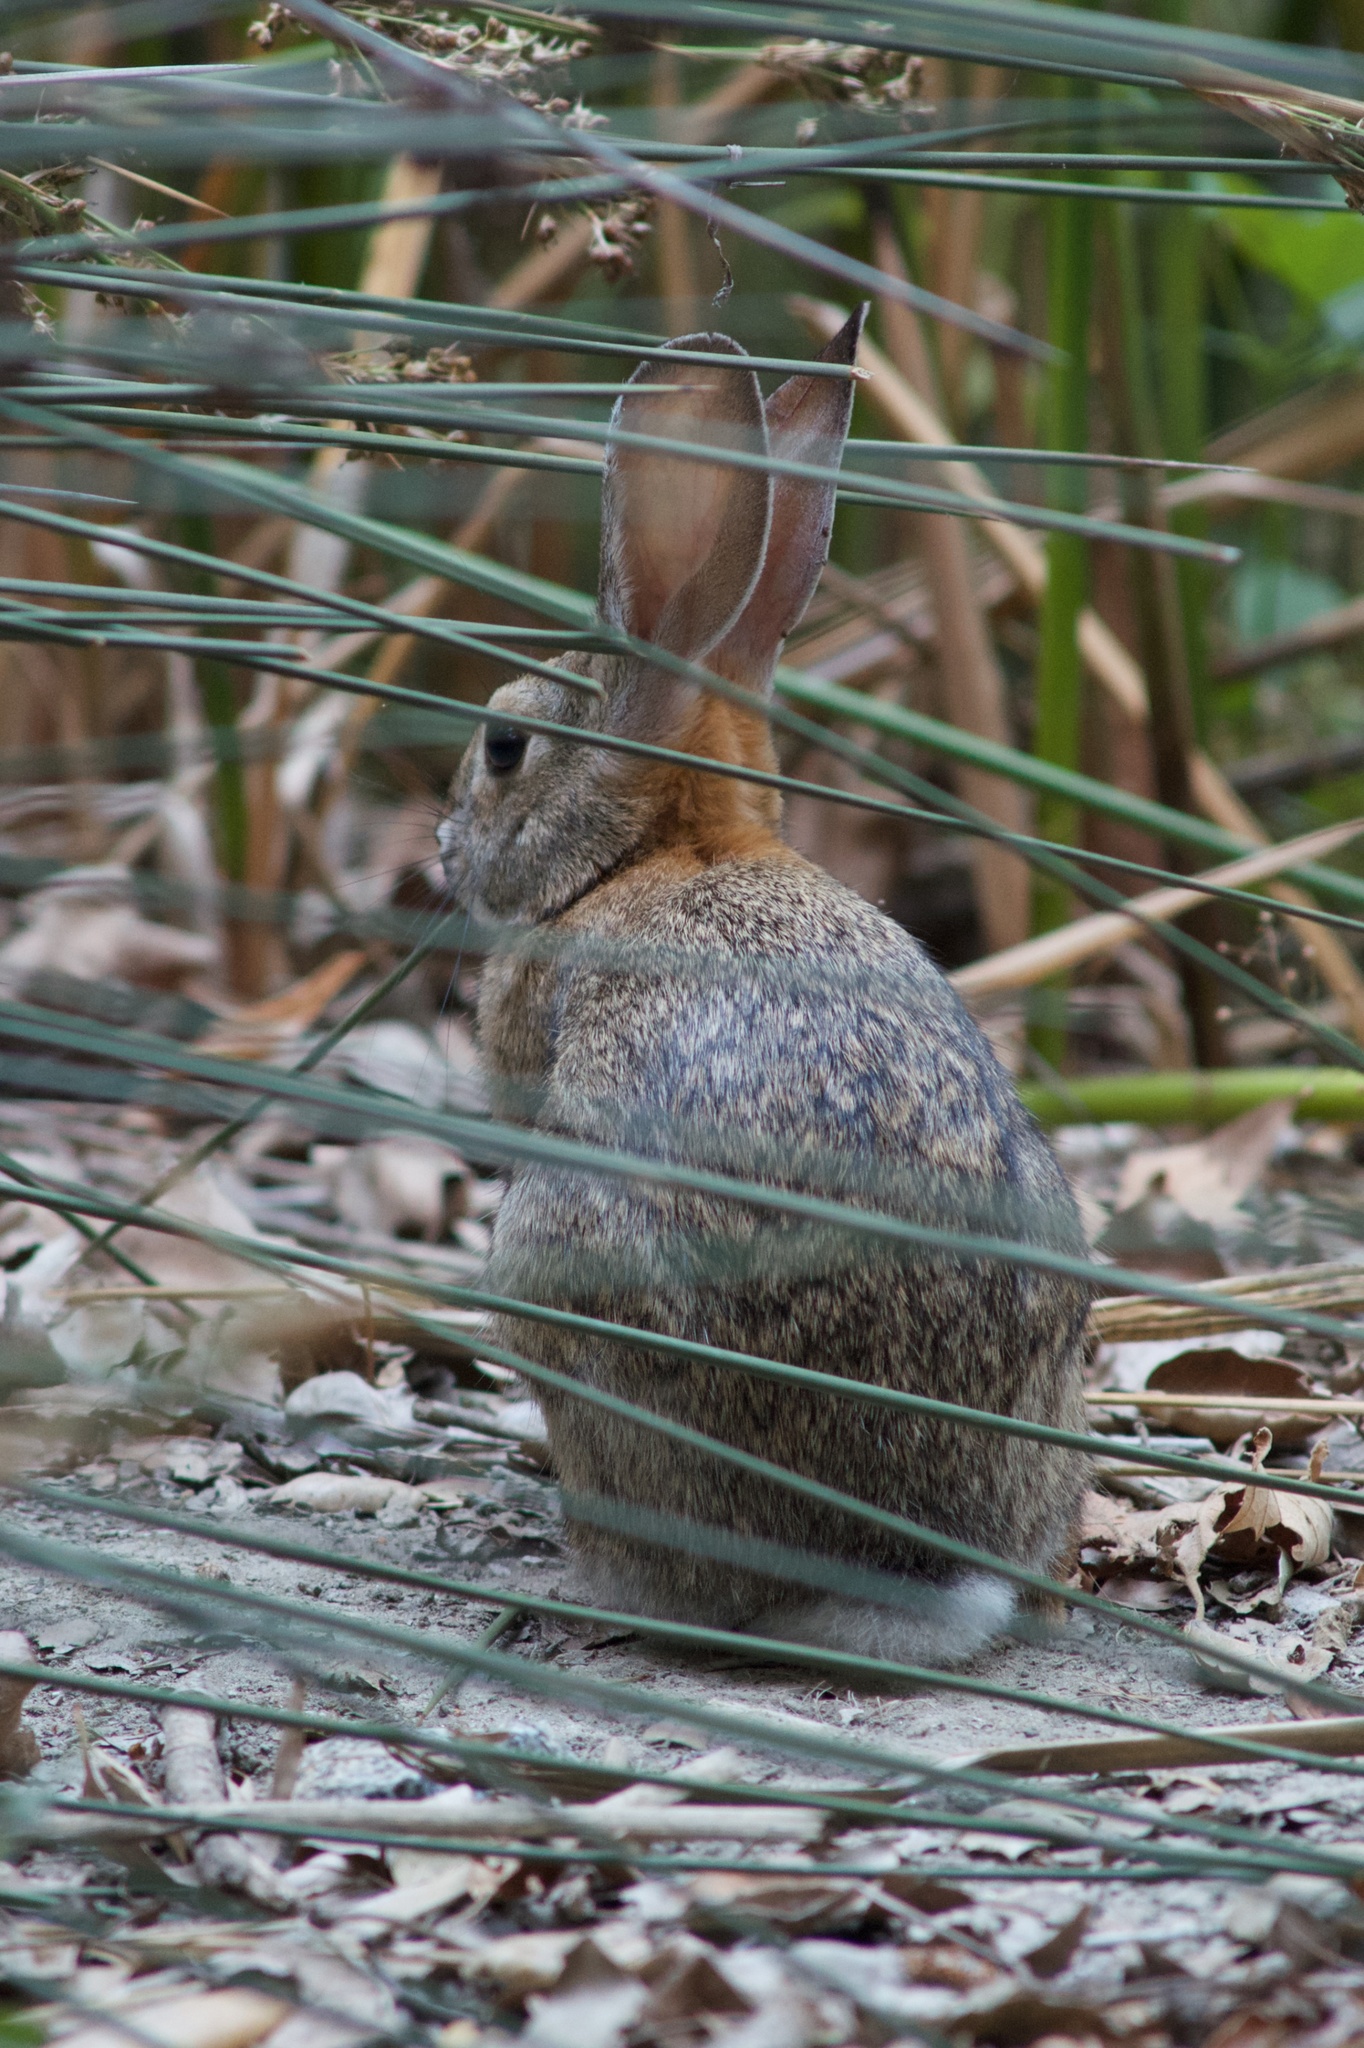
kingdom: Animalia
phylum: Chordata
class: Mammalia
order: Lagomorpha
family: Leporidae
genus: Sylvilagus
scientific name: Sylvilagus audubonii
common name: Desert cottontail
